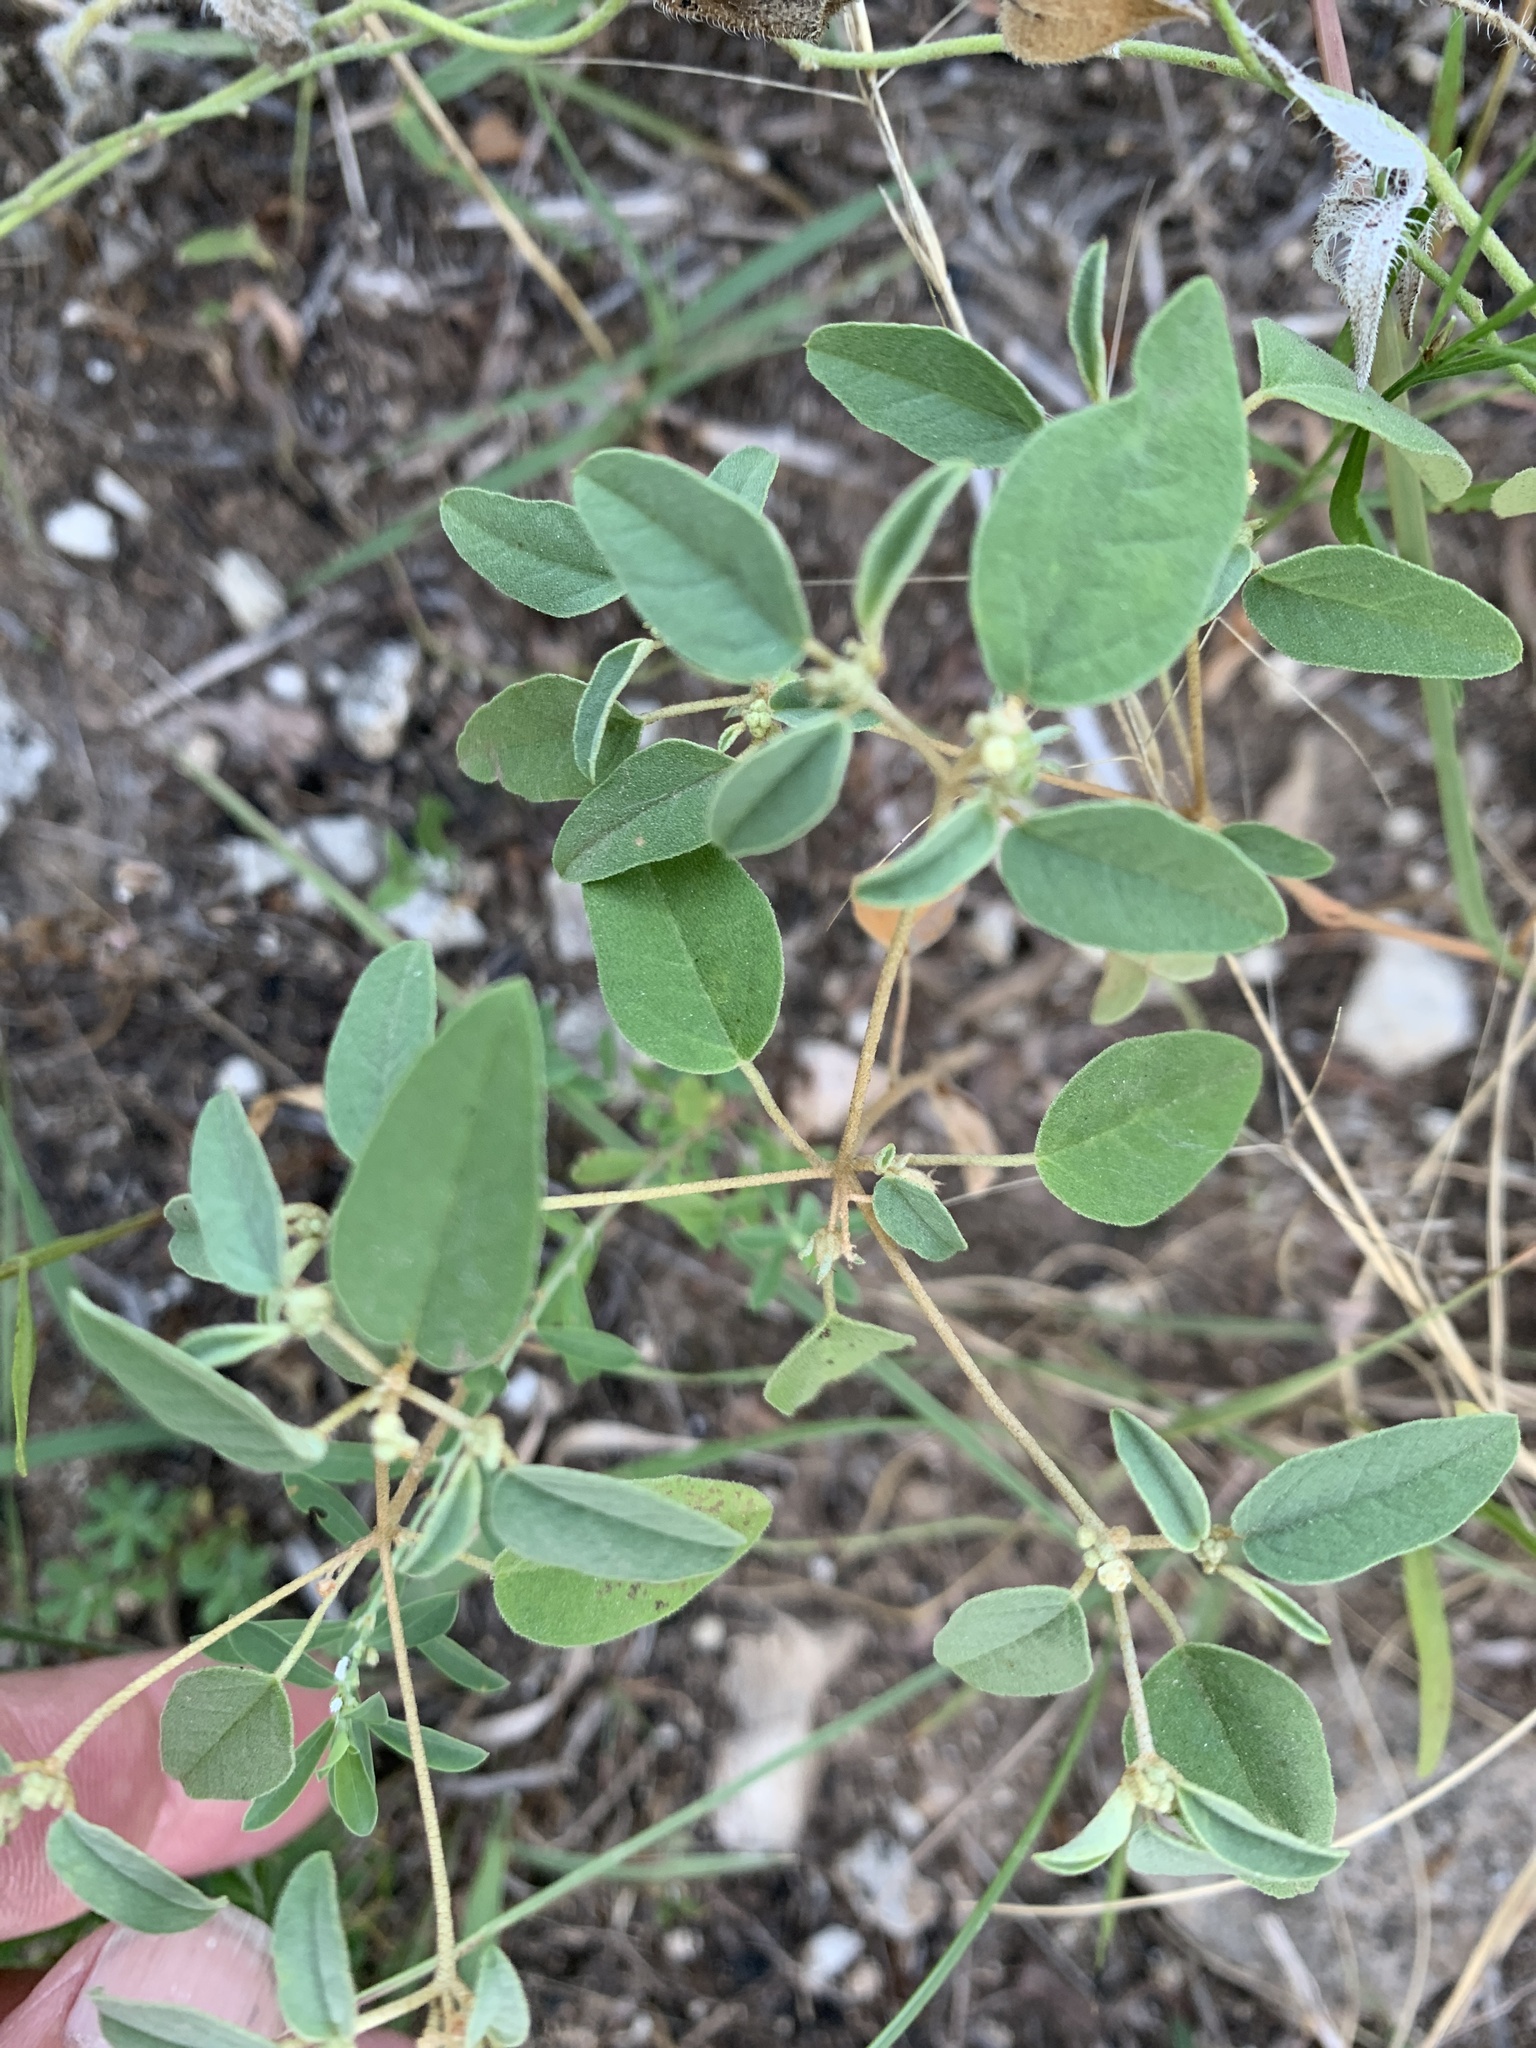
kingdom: Plantae
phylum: Tracheophyta
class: Magnoliopsida
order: Malpighiales
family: Euphorbiaceae
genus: Croton
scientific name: Croton monanthogynus
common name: One-seed croton
